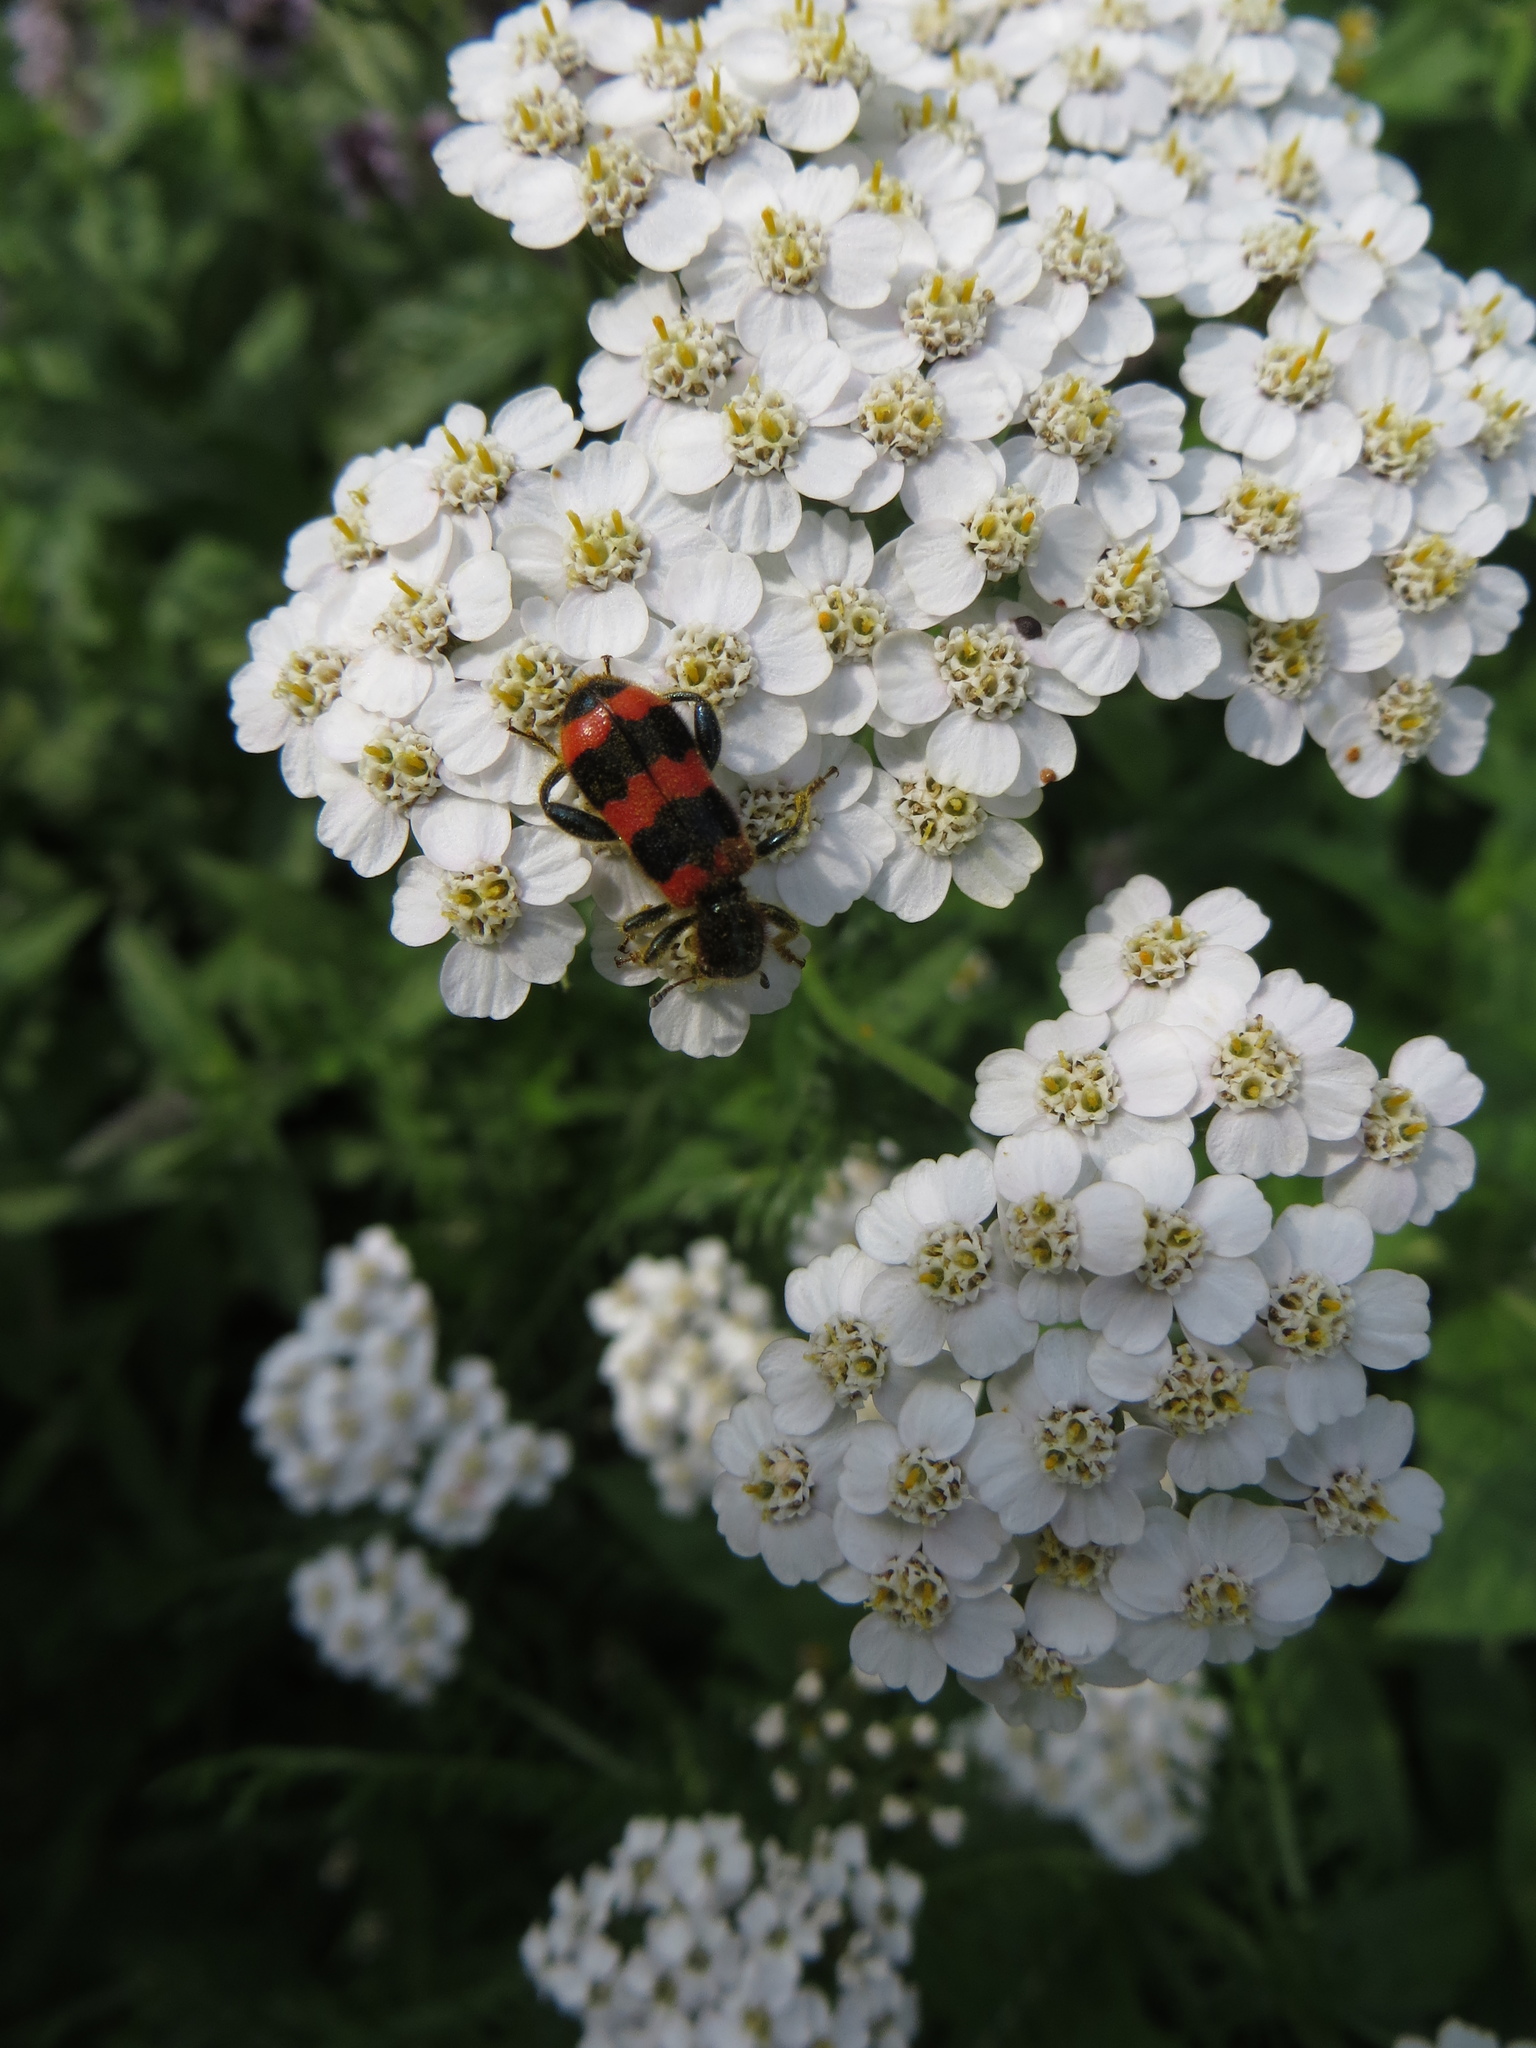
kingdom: Animalia
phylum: Arthropoda
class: Insecta
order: Coleoptera
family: Cleridae
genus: Trichodes
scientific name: Trichodes apiarius
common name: Bee-eating beetle
